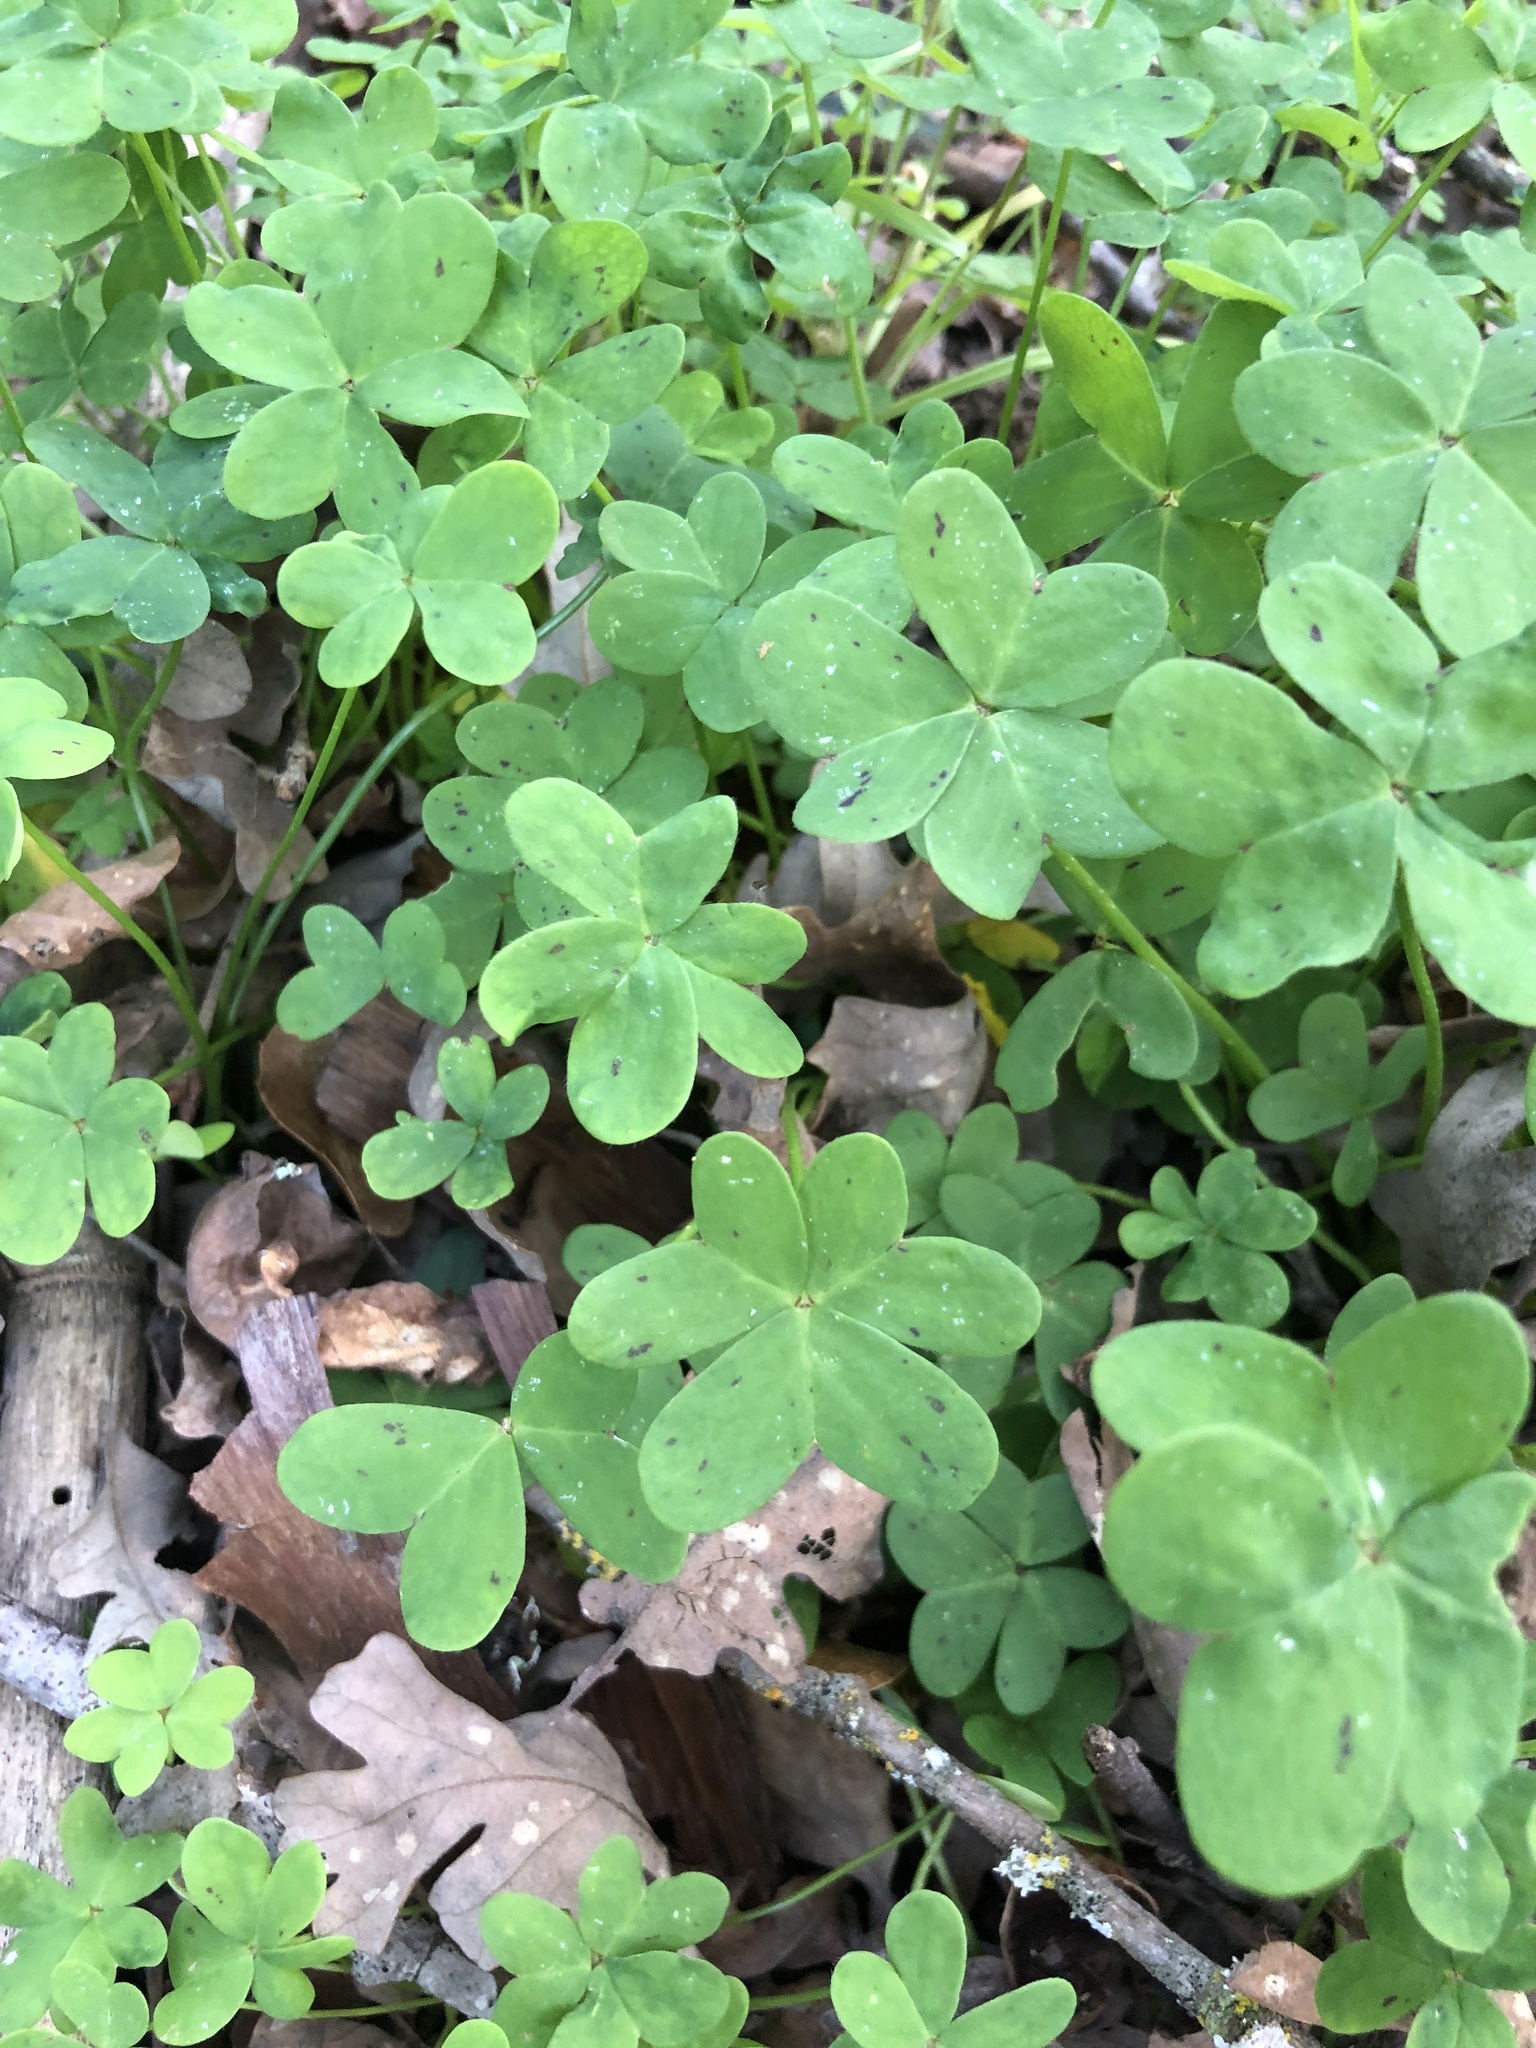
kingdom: Plantae
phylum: Tracheophyta
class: Magnoliopsida
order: Oxalidales
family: Oxalidaceae
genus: Oxalis
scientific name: Oxalis pes-caprae
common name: Bermuda-buttercup
